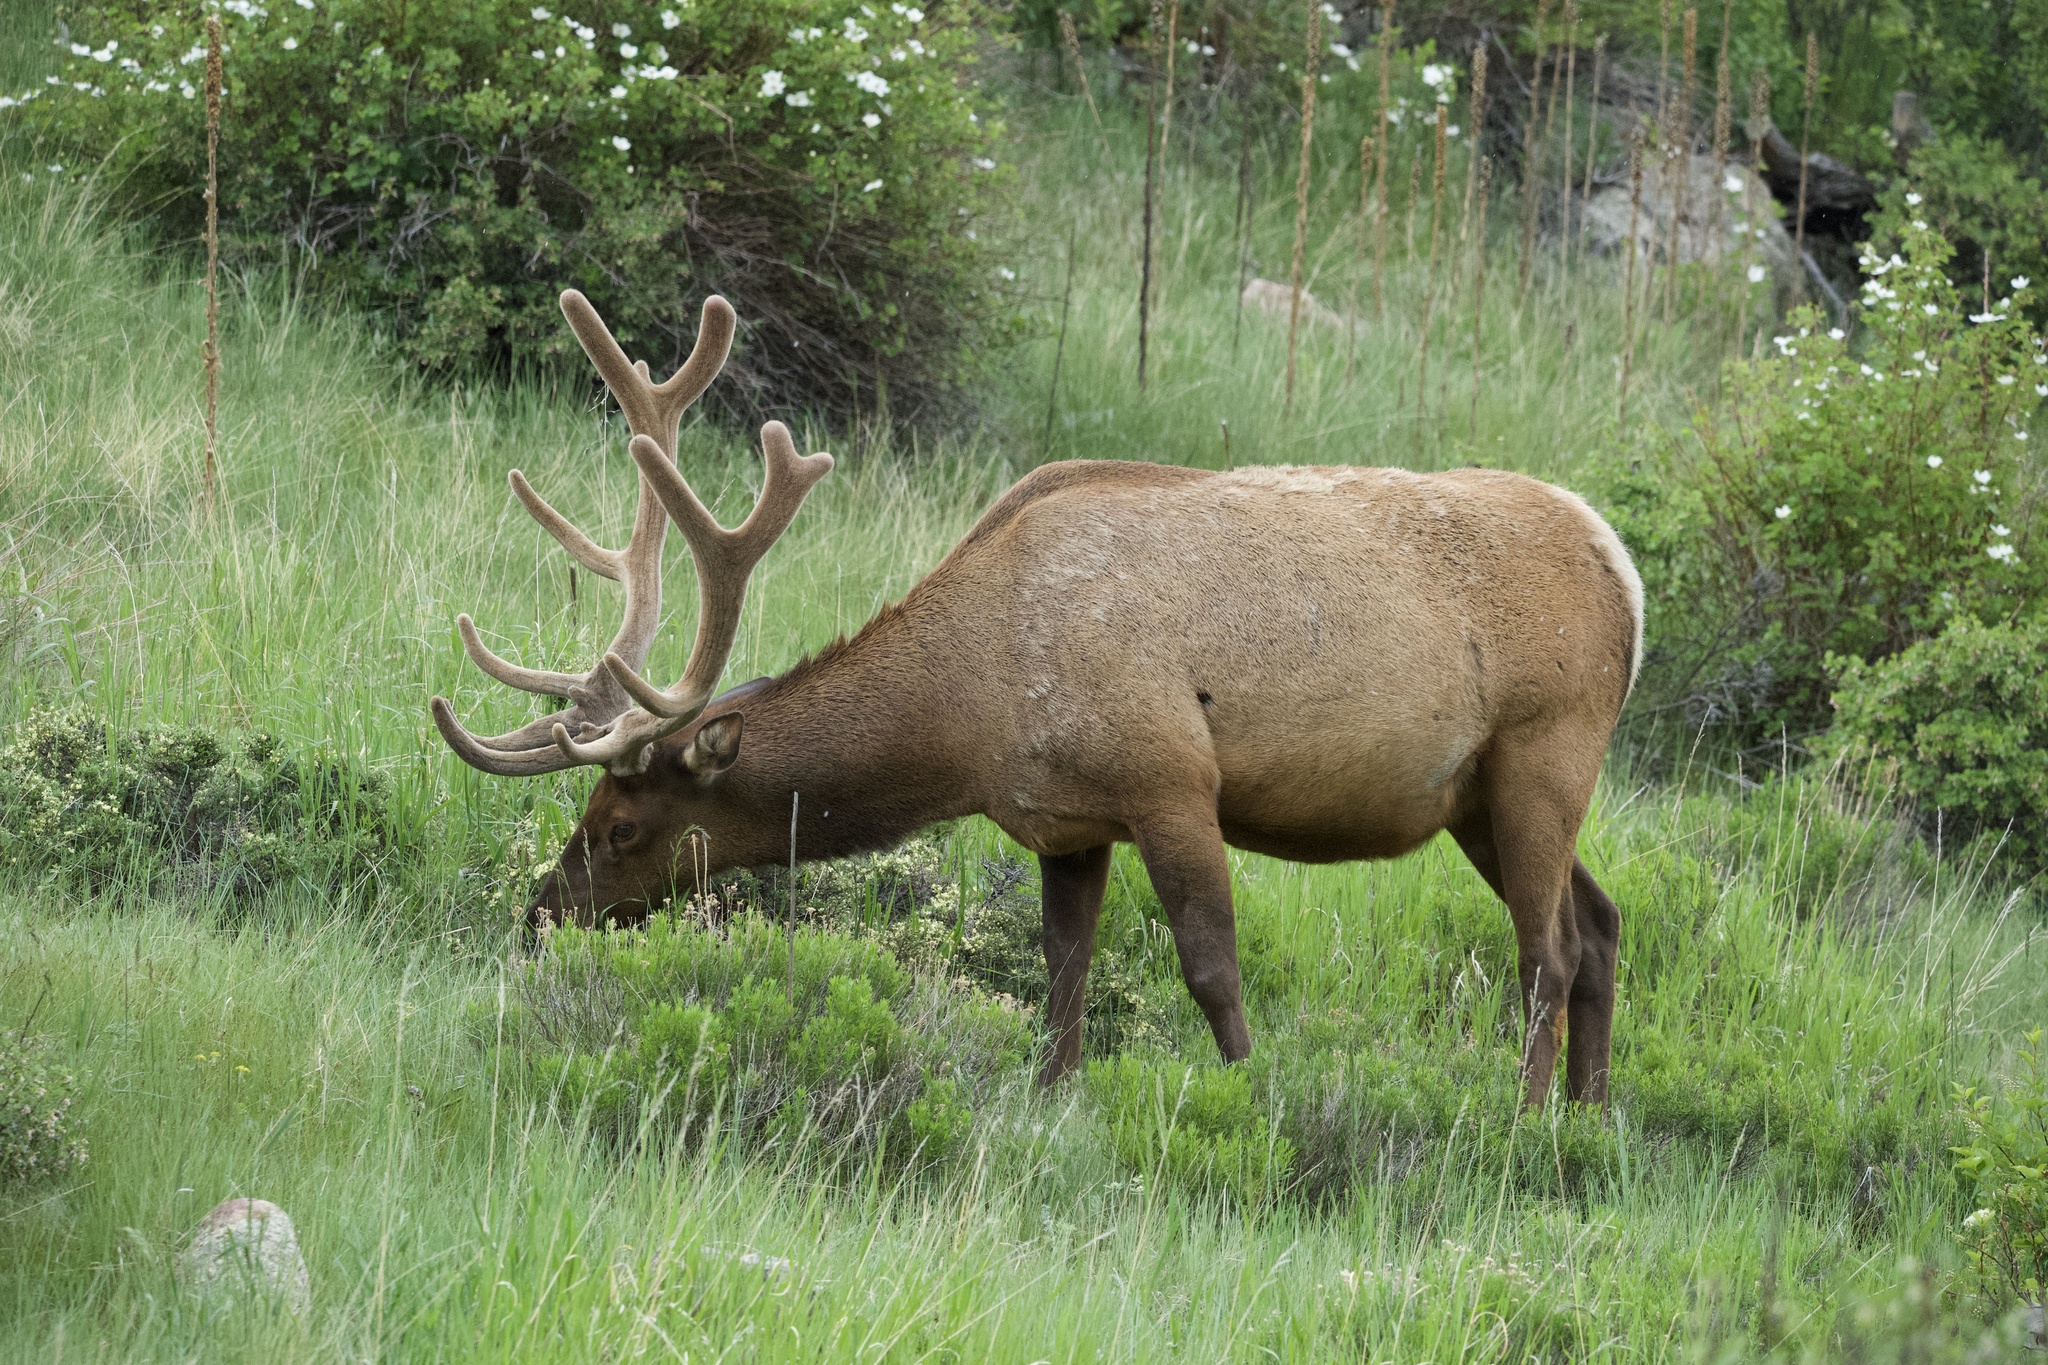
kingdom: Animalia
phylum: Chordata
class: Mammalia
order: Artiodactyla
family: Cervidae
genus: Cervus
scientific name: Cervus elaphus
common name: Red deer
